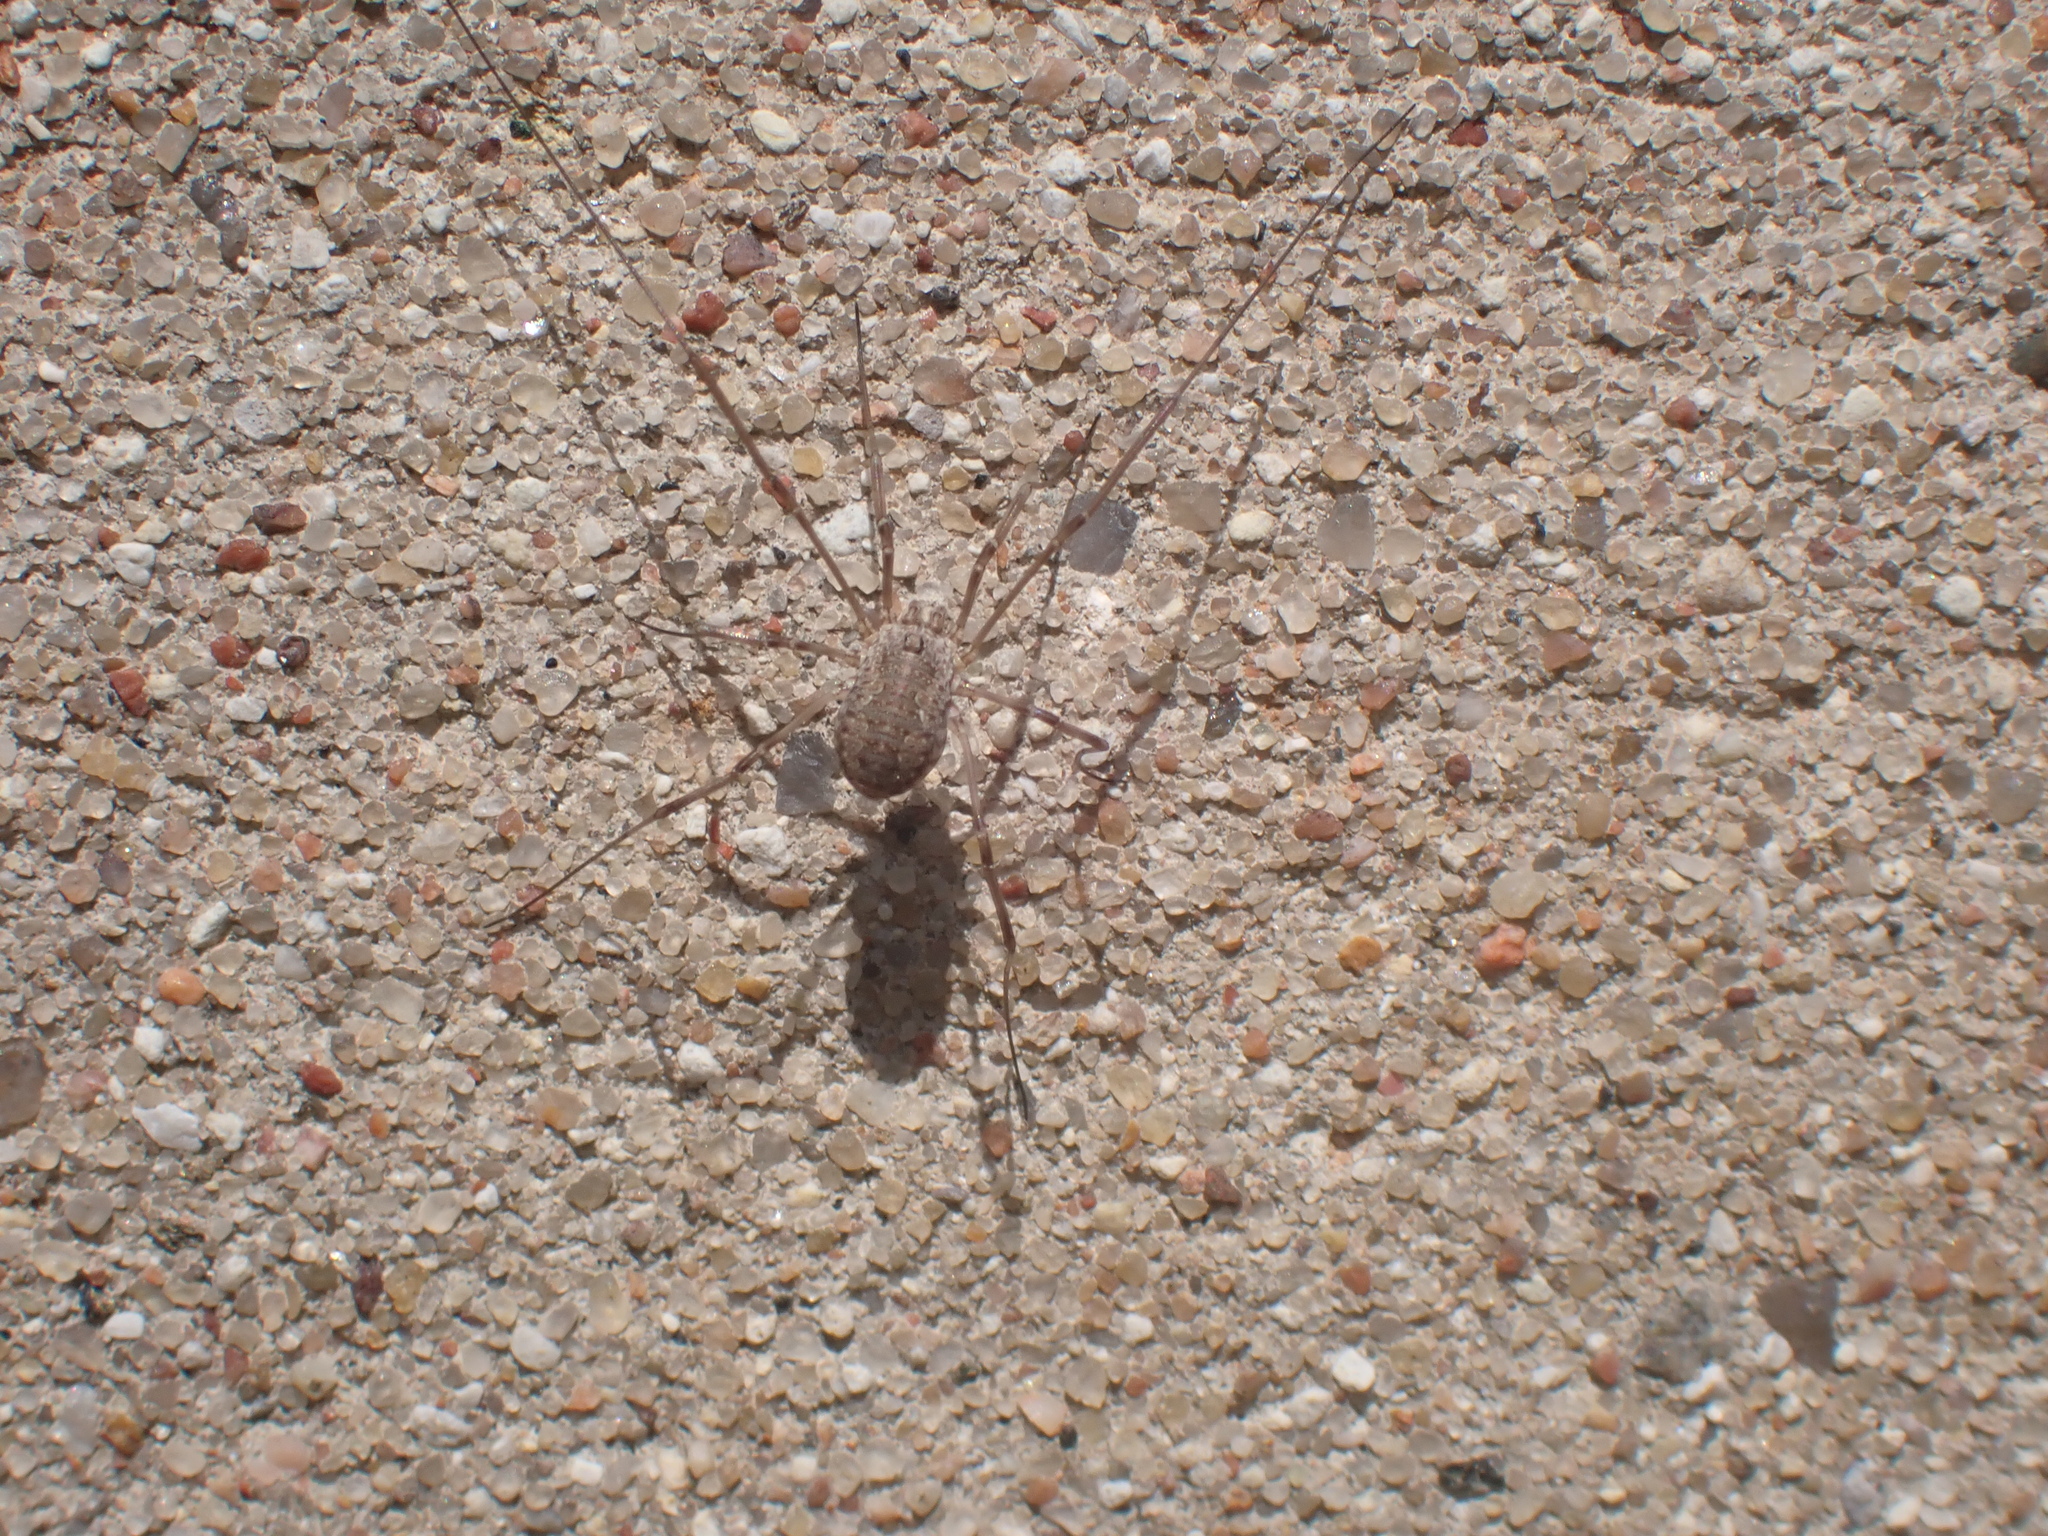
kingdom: Animalia
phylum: Arthropoda
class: Arachnida
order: Opiliones
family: Phalangiidae
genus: Phalangium
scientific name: Phalangium opilio
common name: Daddy longleg
